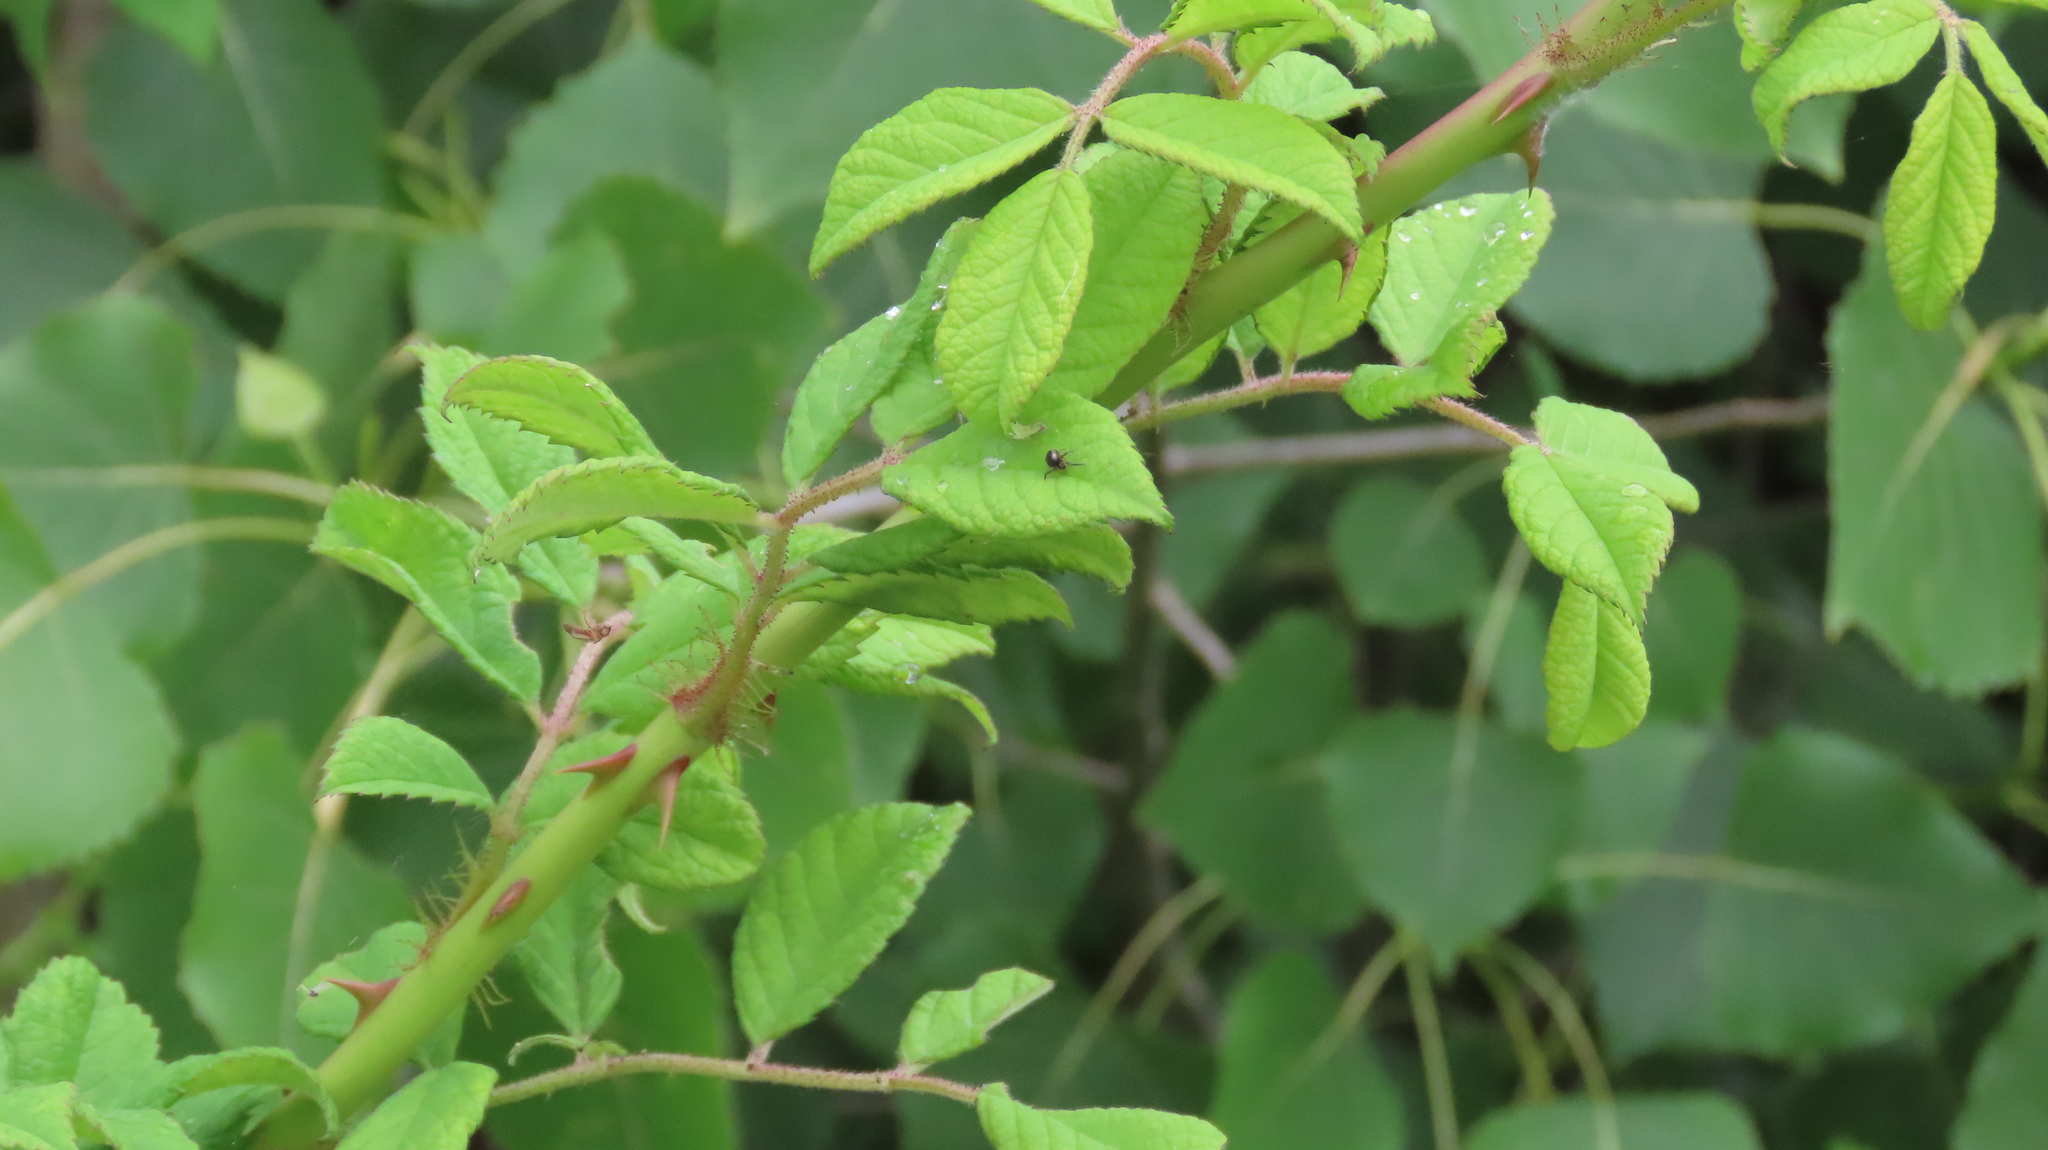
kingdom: Plantae
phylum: Tracheophyta
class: Magnoliopsida
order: Rosales
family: Rosaceae
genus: Rosa
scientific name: Rosa multiflora
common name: Multiflora rose
